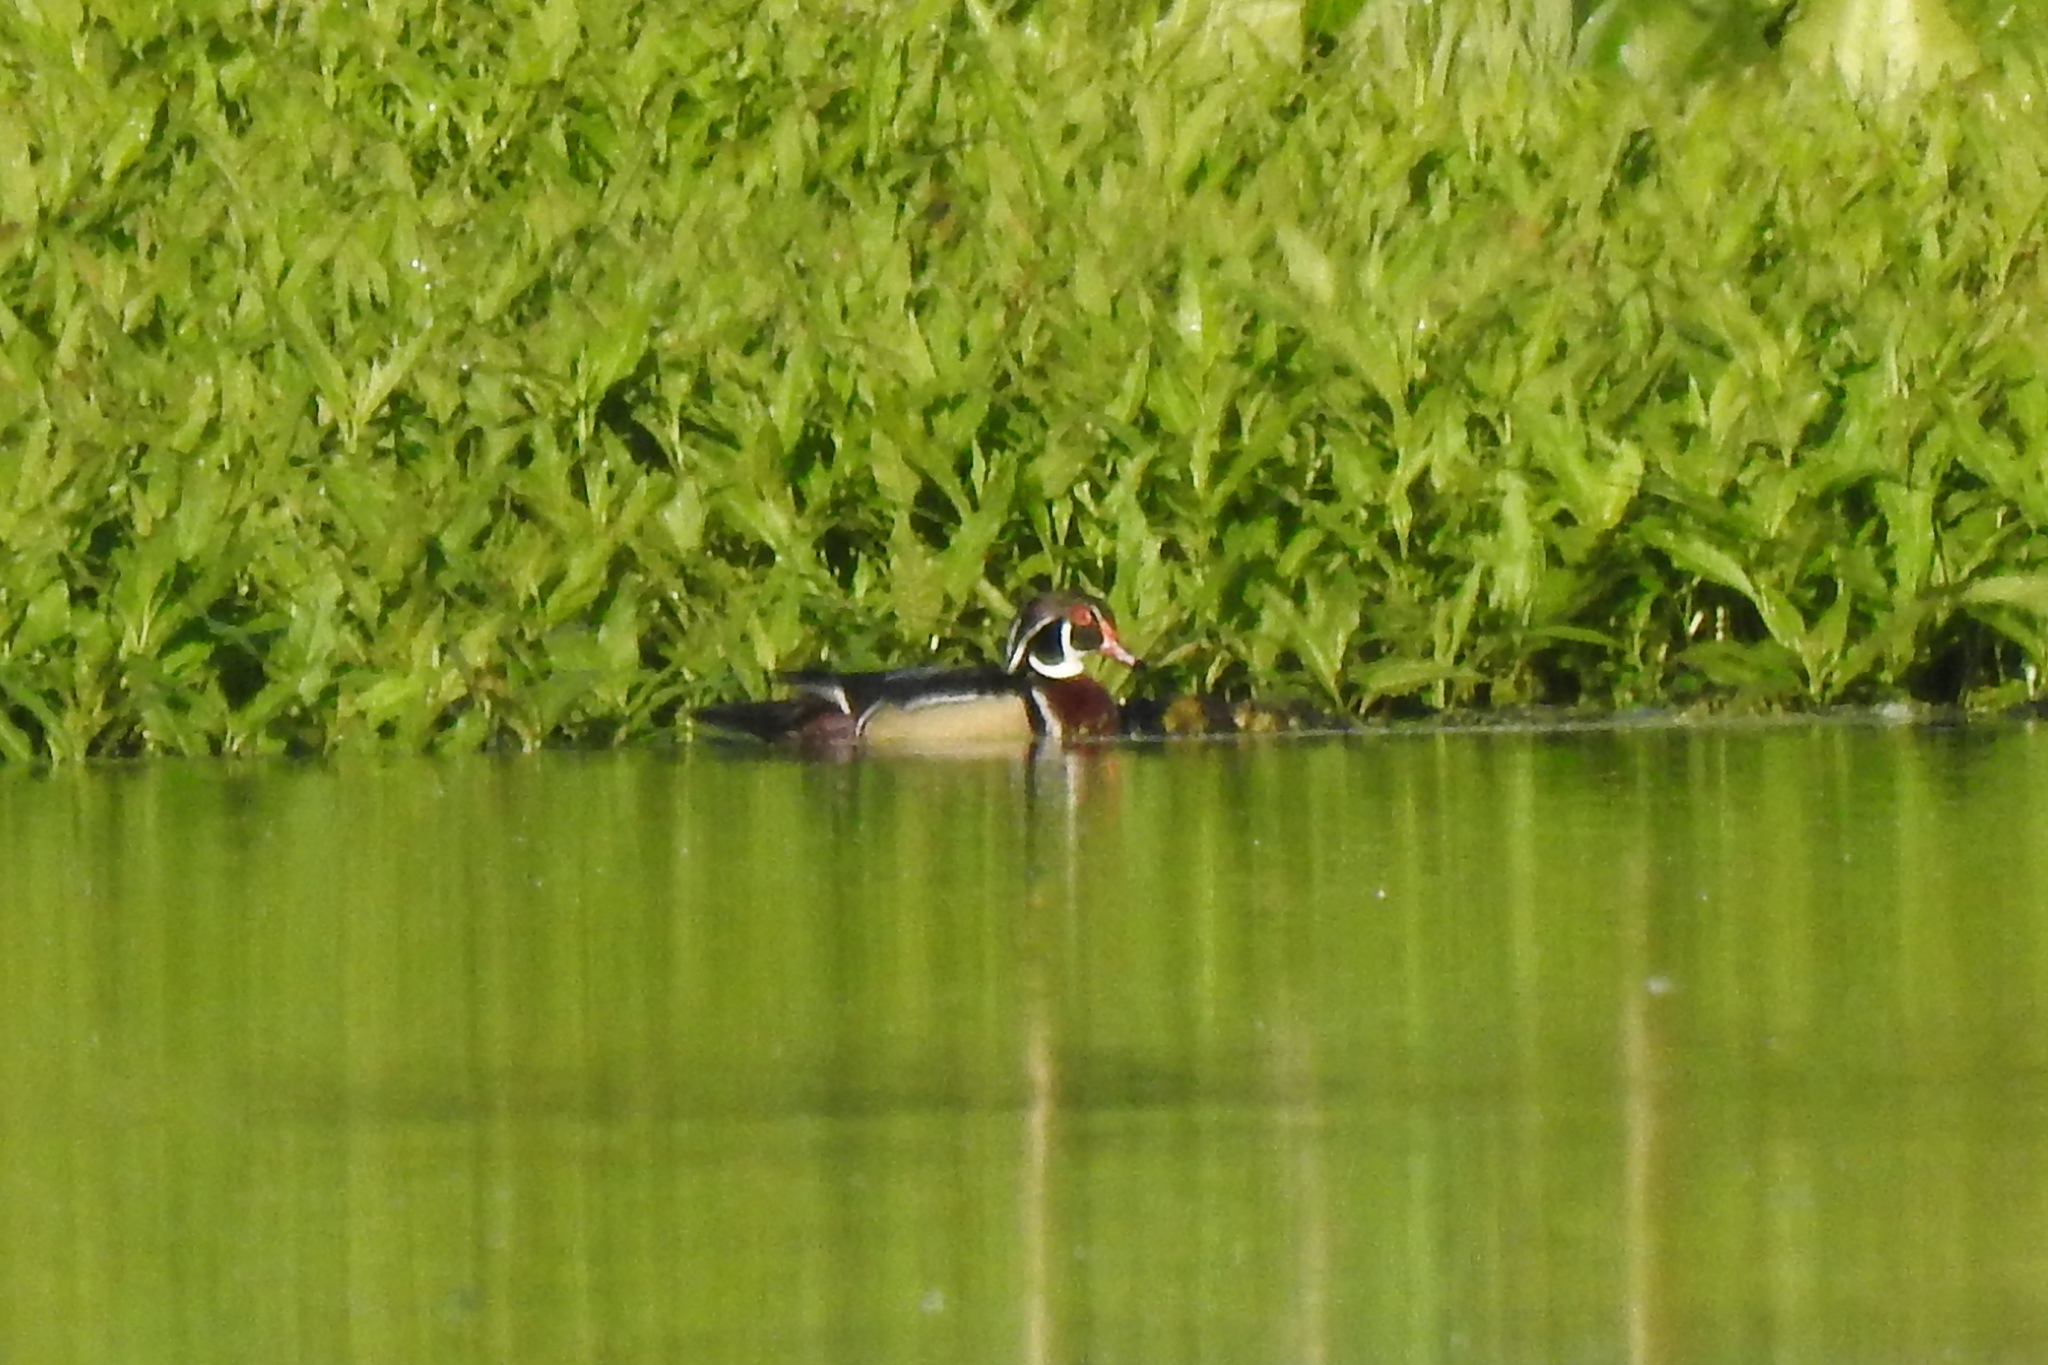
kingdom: Animalia
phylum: Chordata
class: Aves
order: Anseriformes
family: Anatidae
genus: Aix
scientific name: Aix sponsa
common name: Wood duck
